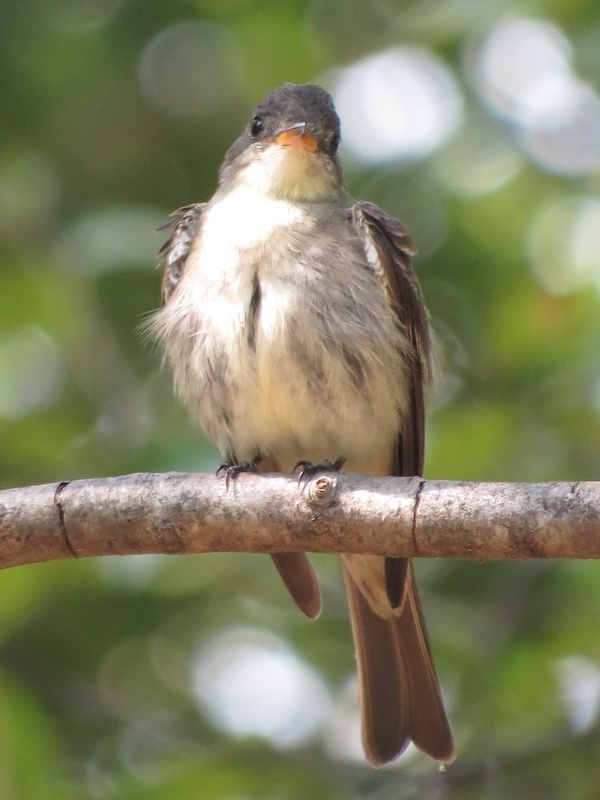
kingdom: Animalia
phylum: Chordata
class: Aves
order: Passeriformes
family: Tyrannidae
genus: Contopus
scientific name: Contopus virens
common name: Eastern wood-pewee
